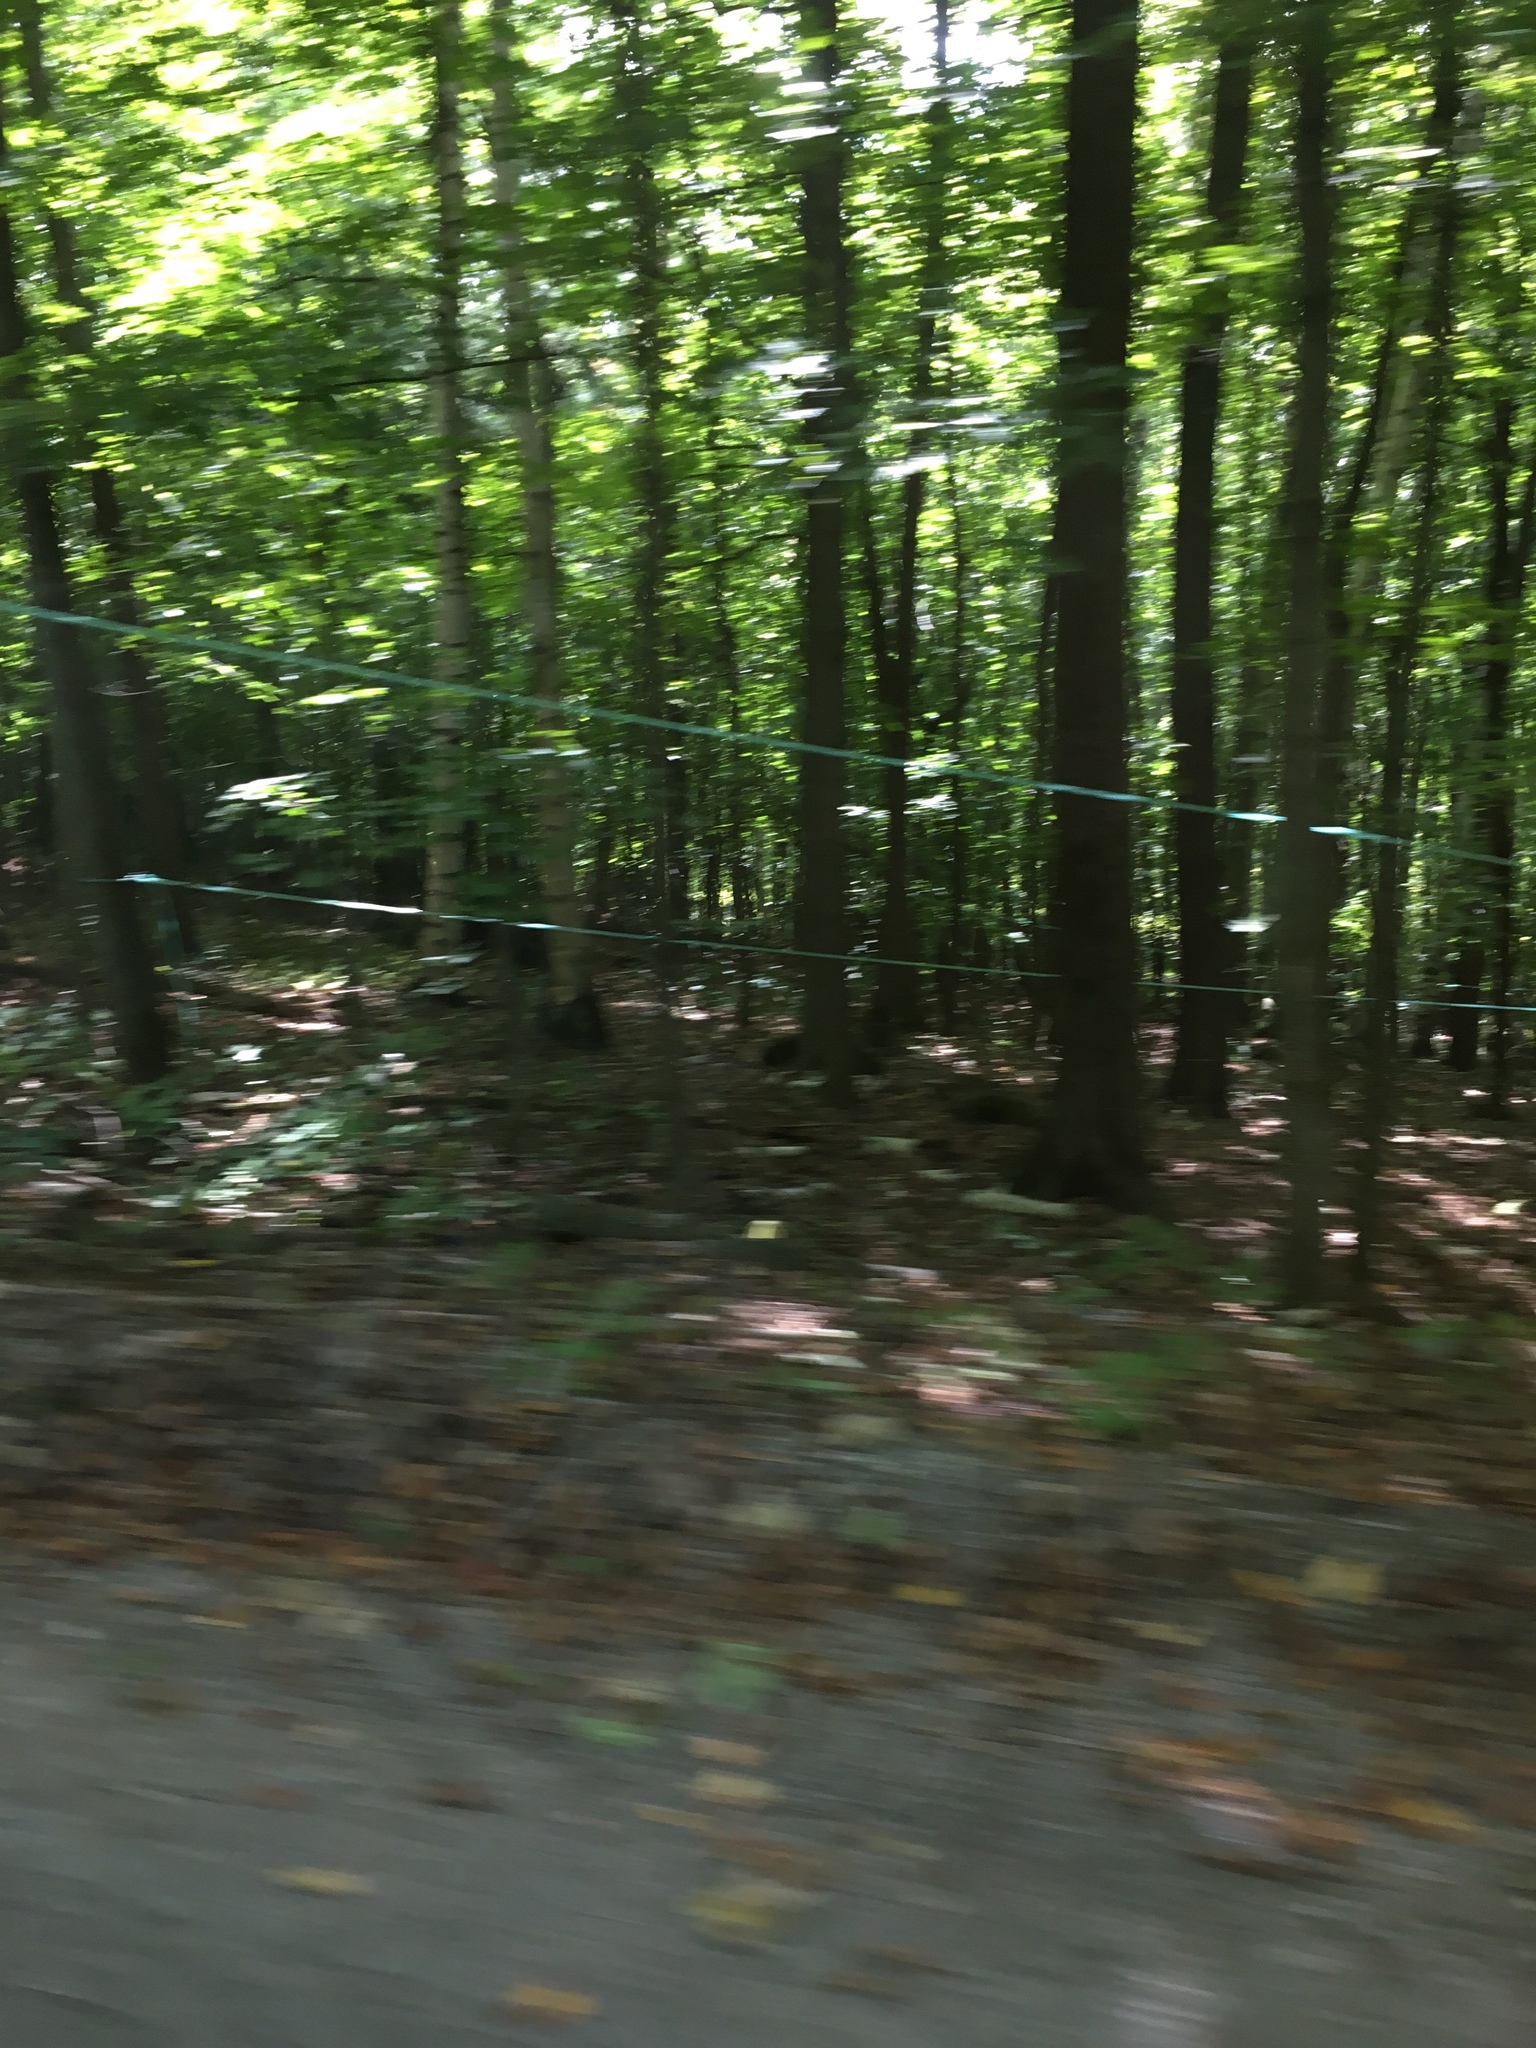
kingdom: Plantae
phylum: Tracheophyta
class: Magnoliopsida
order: Sapindales
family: Sapindaceae
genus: Acer
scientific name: Acer saccharum
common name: Sugar maple
